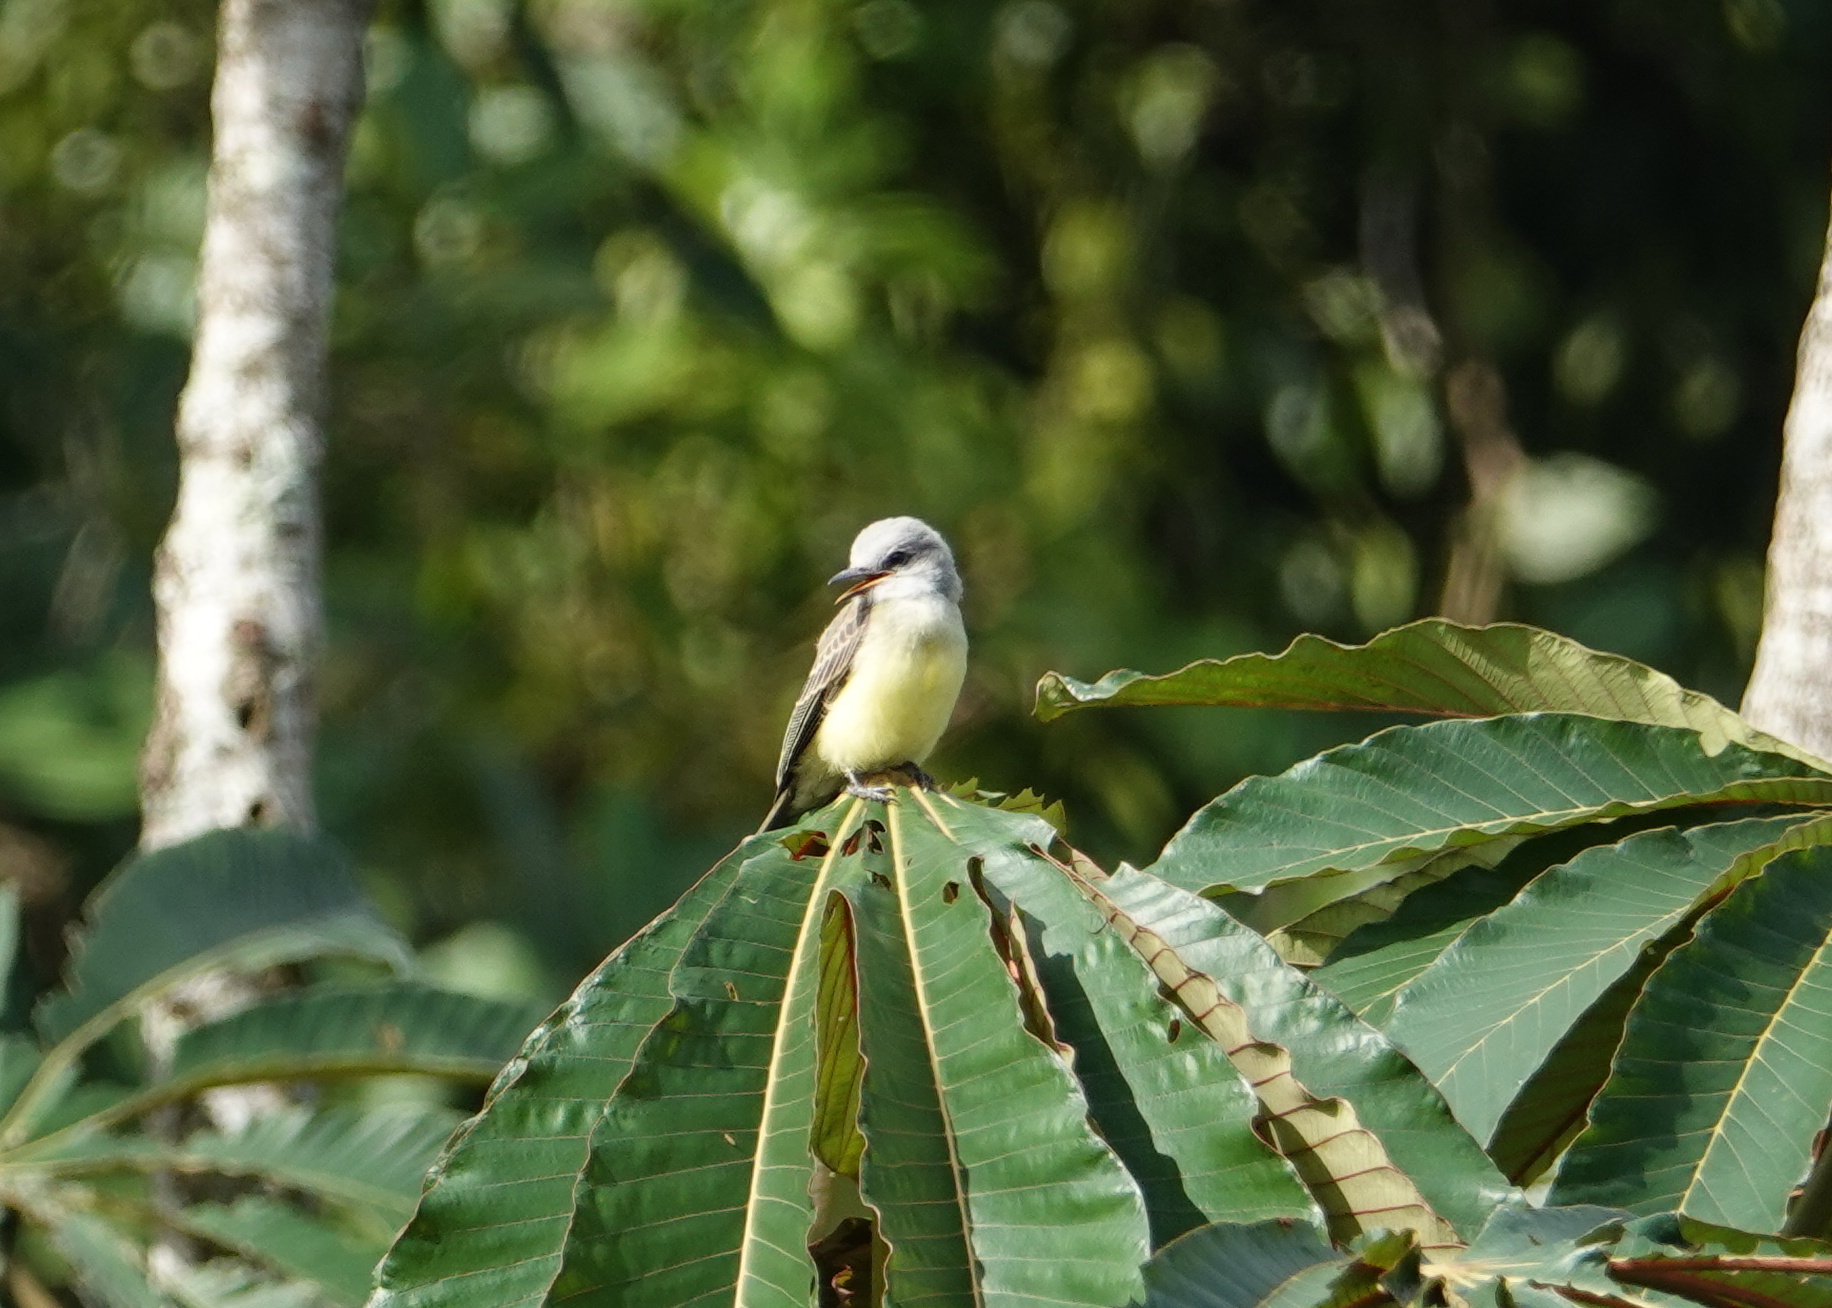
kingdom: Animalia
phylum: Chordata
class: Aves
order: Passeriformes
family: Tyrannidae
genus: Tyrannus
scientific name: Tyrannus melancholicus
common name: Tropical kingbird
